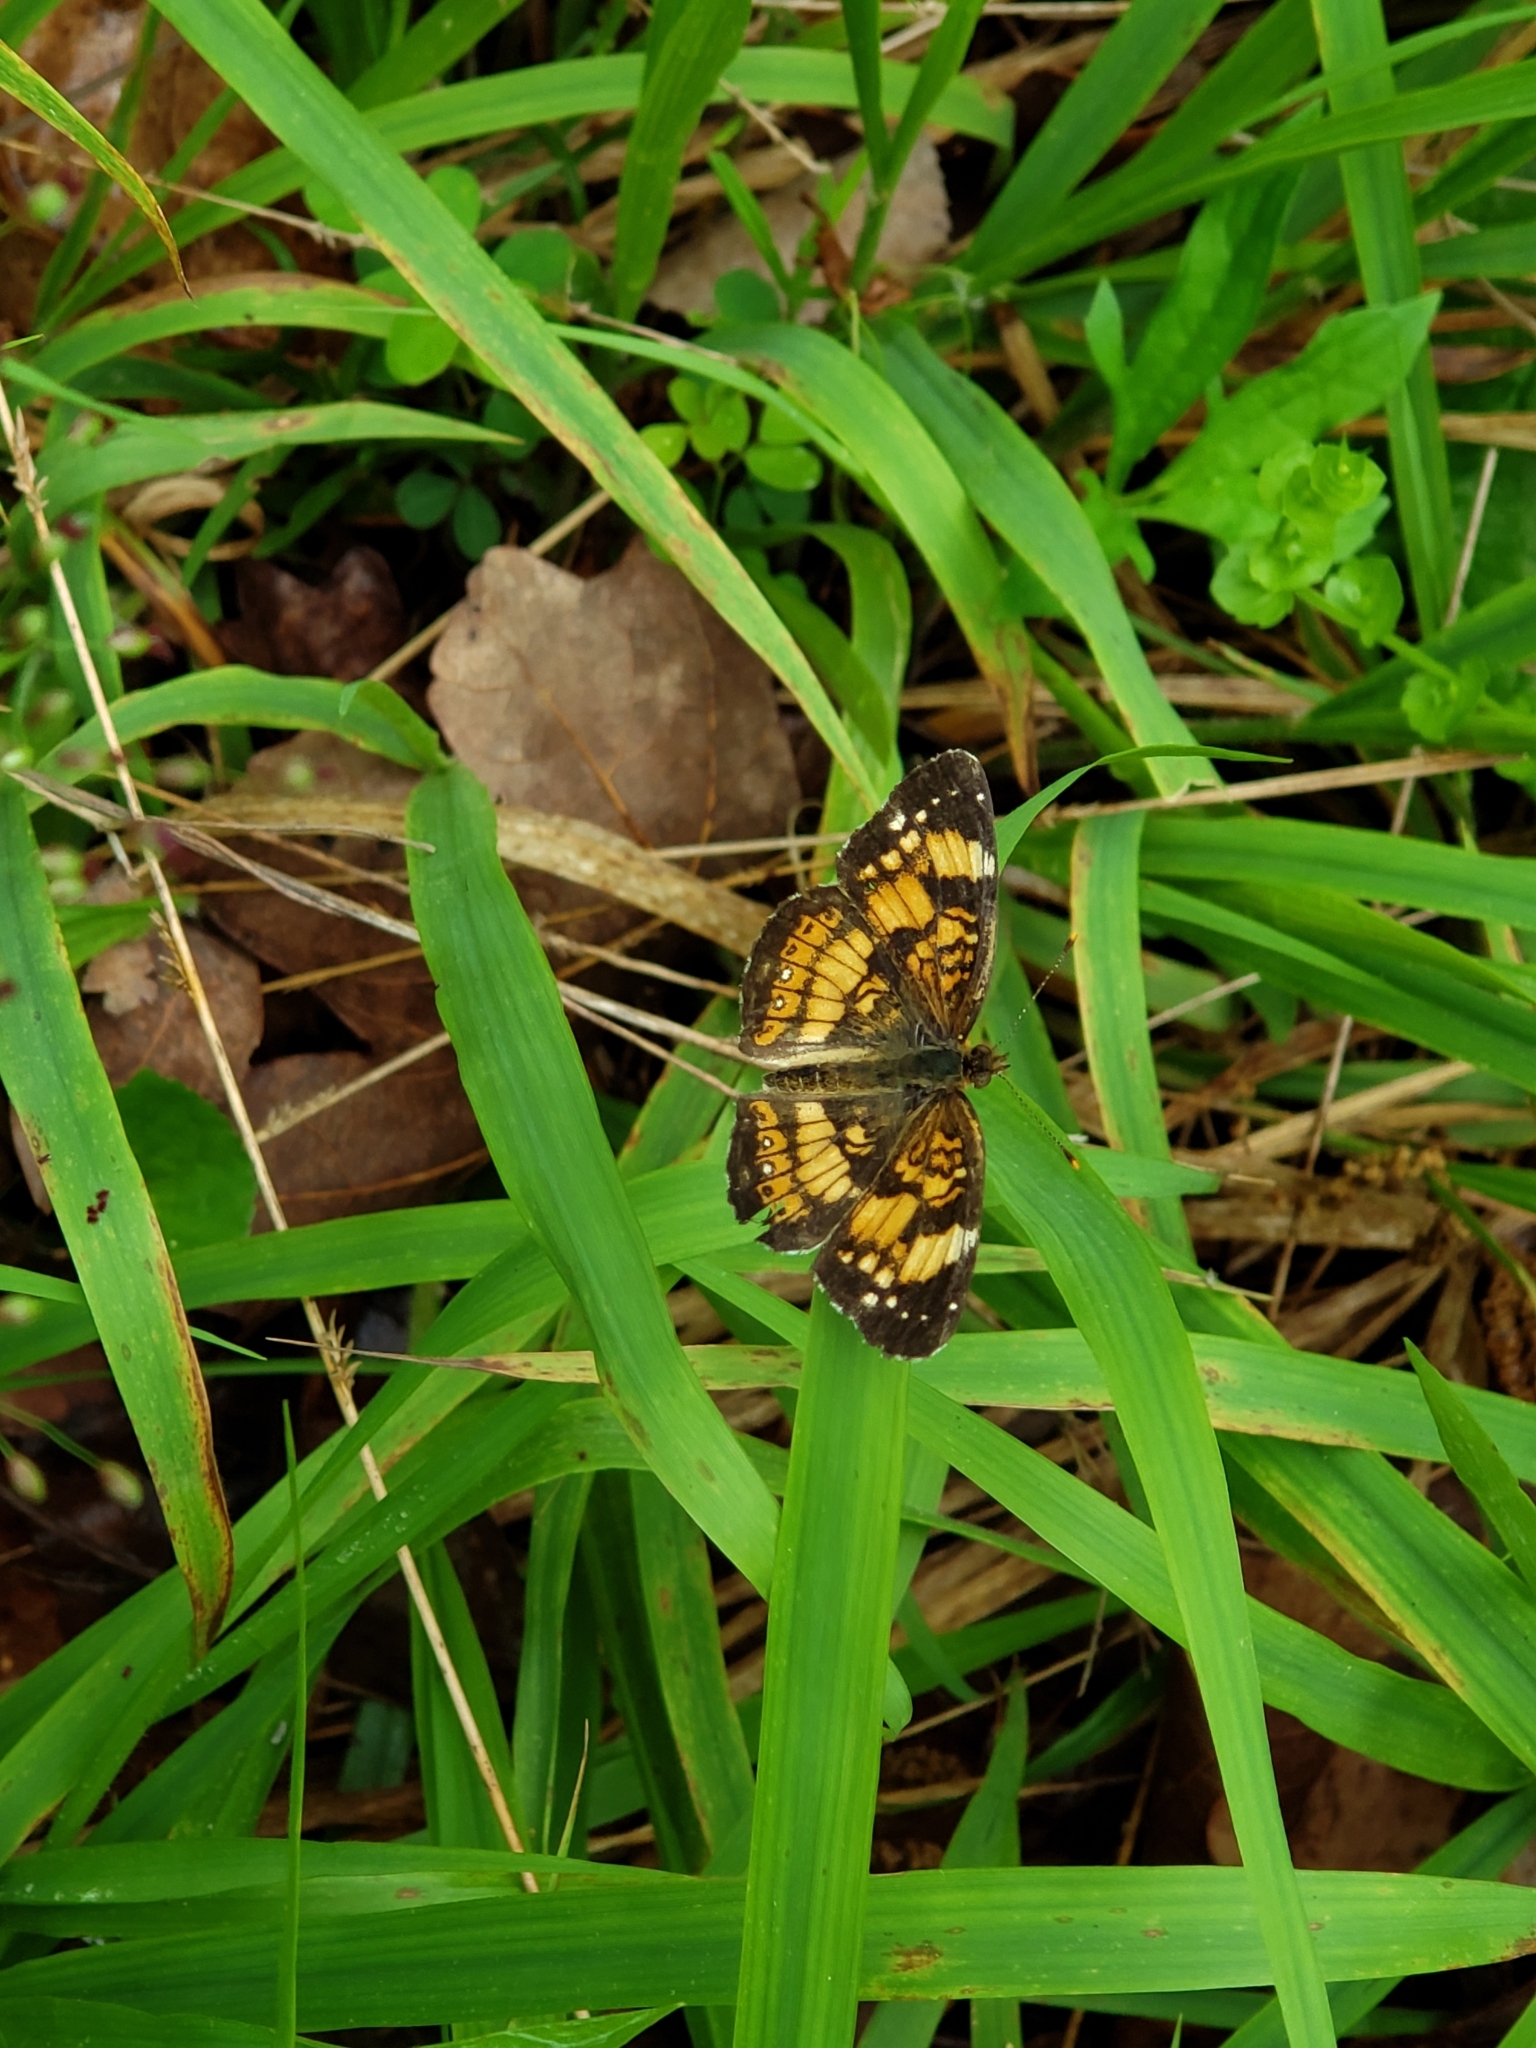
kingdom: Animalia
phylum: Arthropoda
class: Insecta
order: Lepidoptera
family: Nymphalidae
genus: Chlosyne
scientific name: Chlosyne nycteis
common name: Silvery checkerspot
